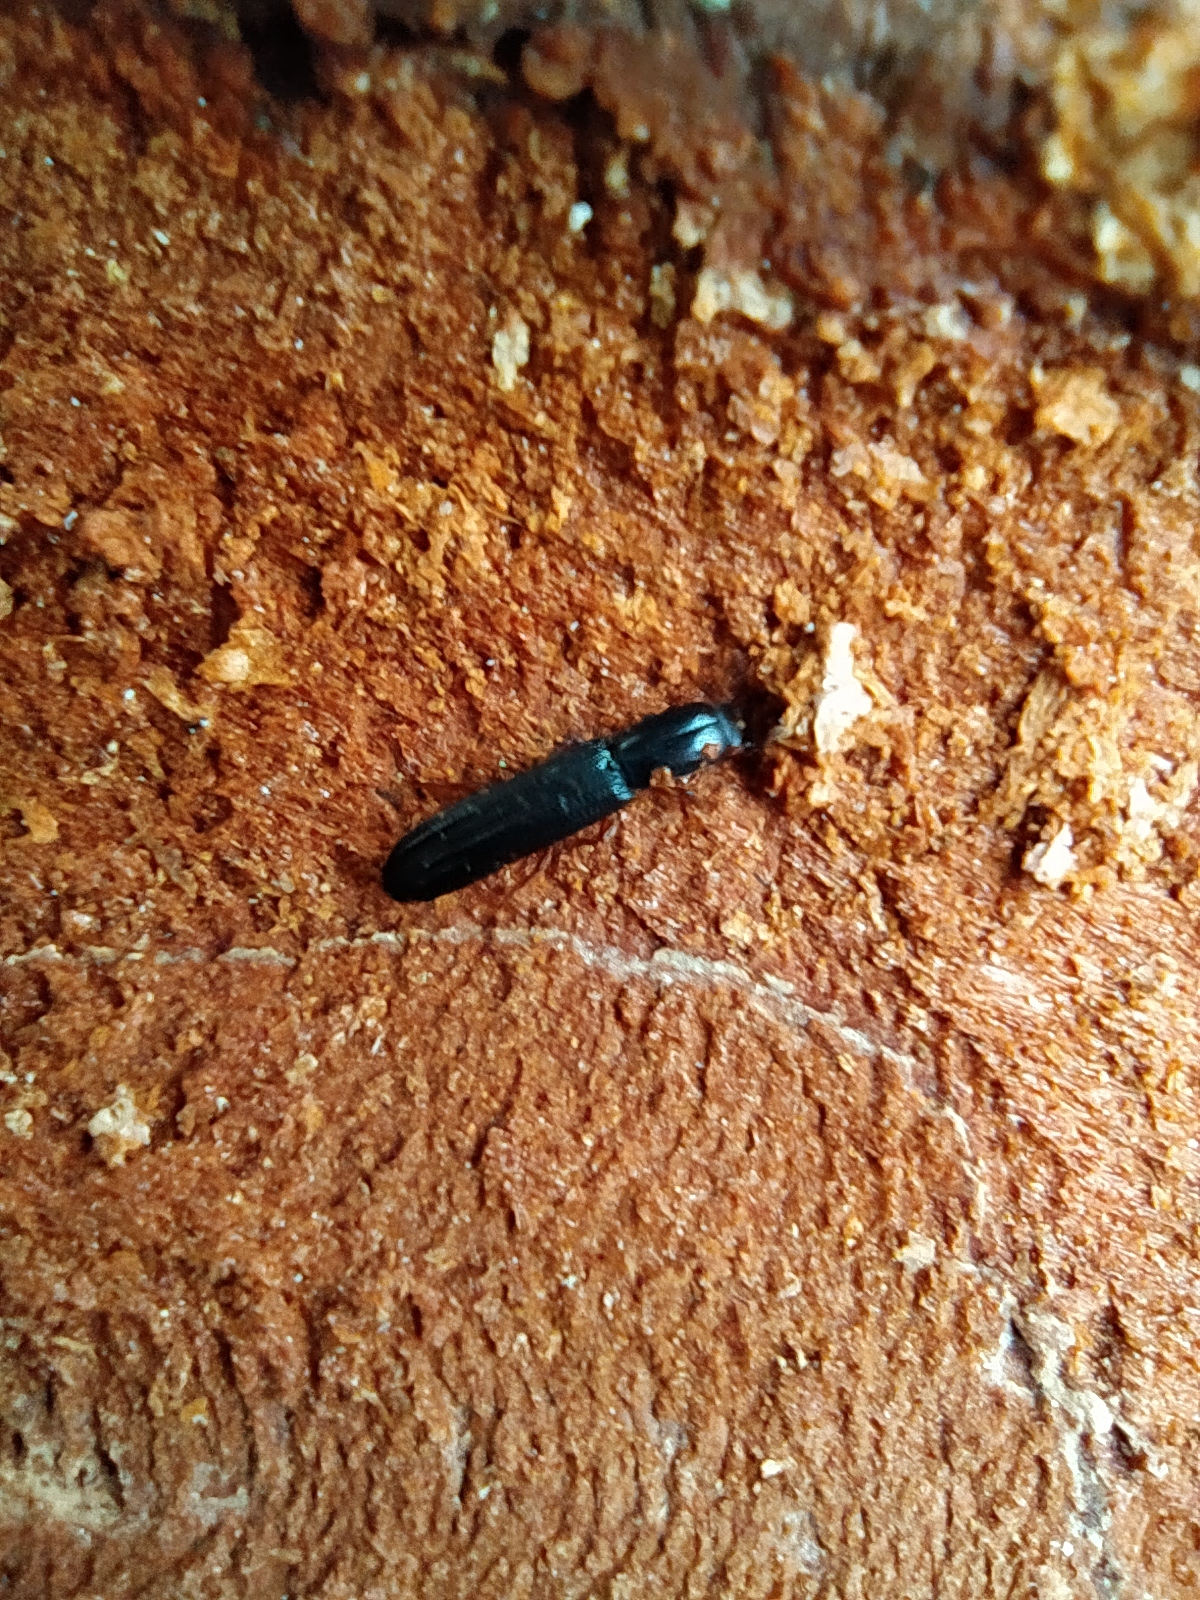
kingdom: Animalia
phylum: Arthropoda
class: Insecta
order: Coleoptera
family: Zopheridae
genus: Colydium
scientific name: Colydium elongatum
